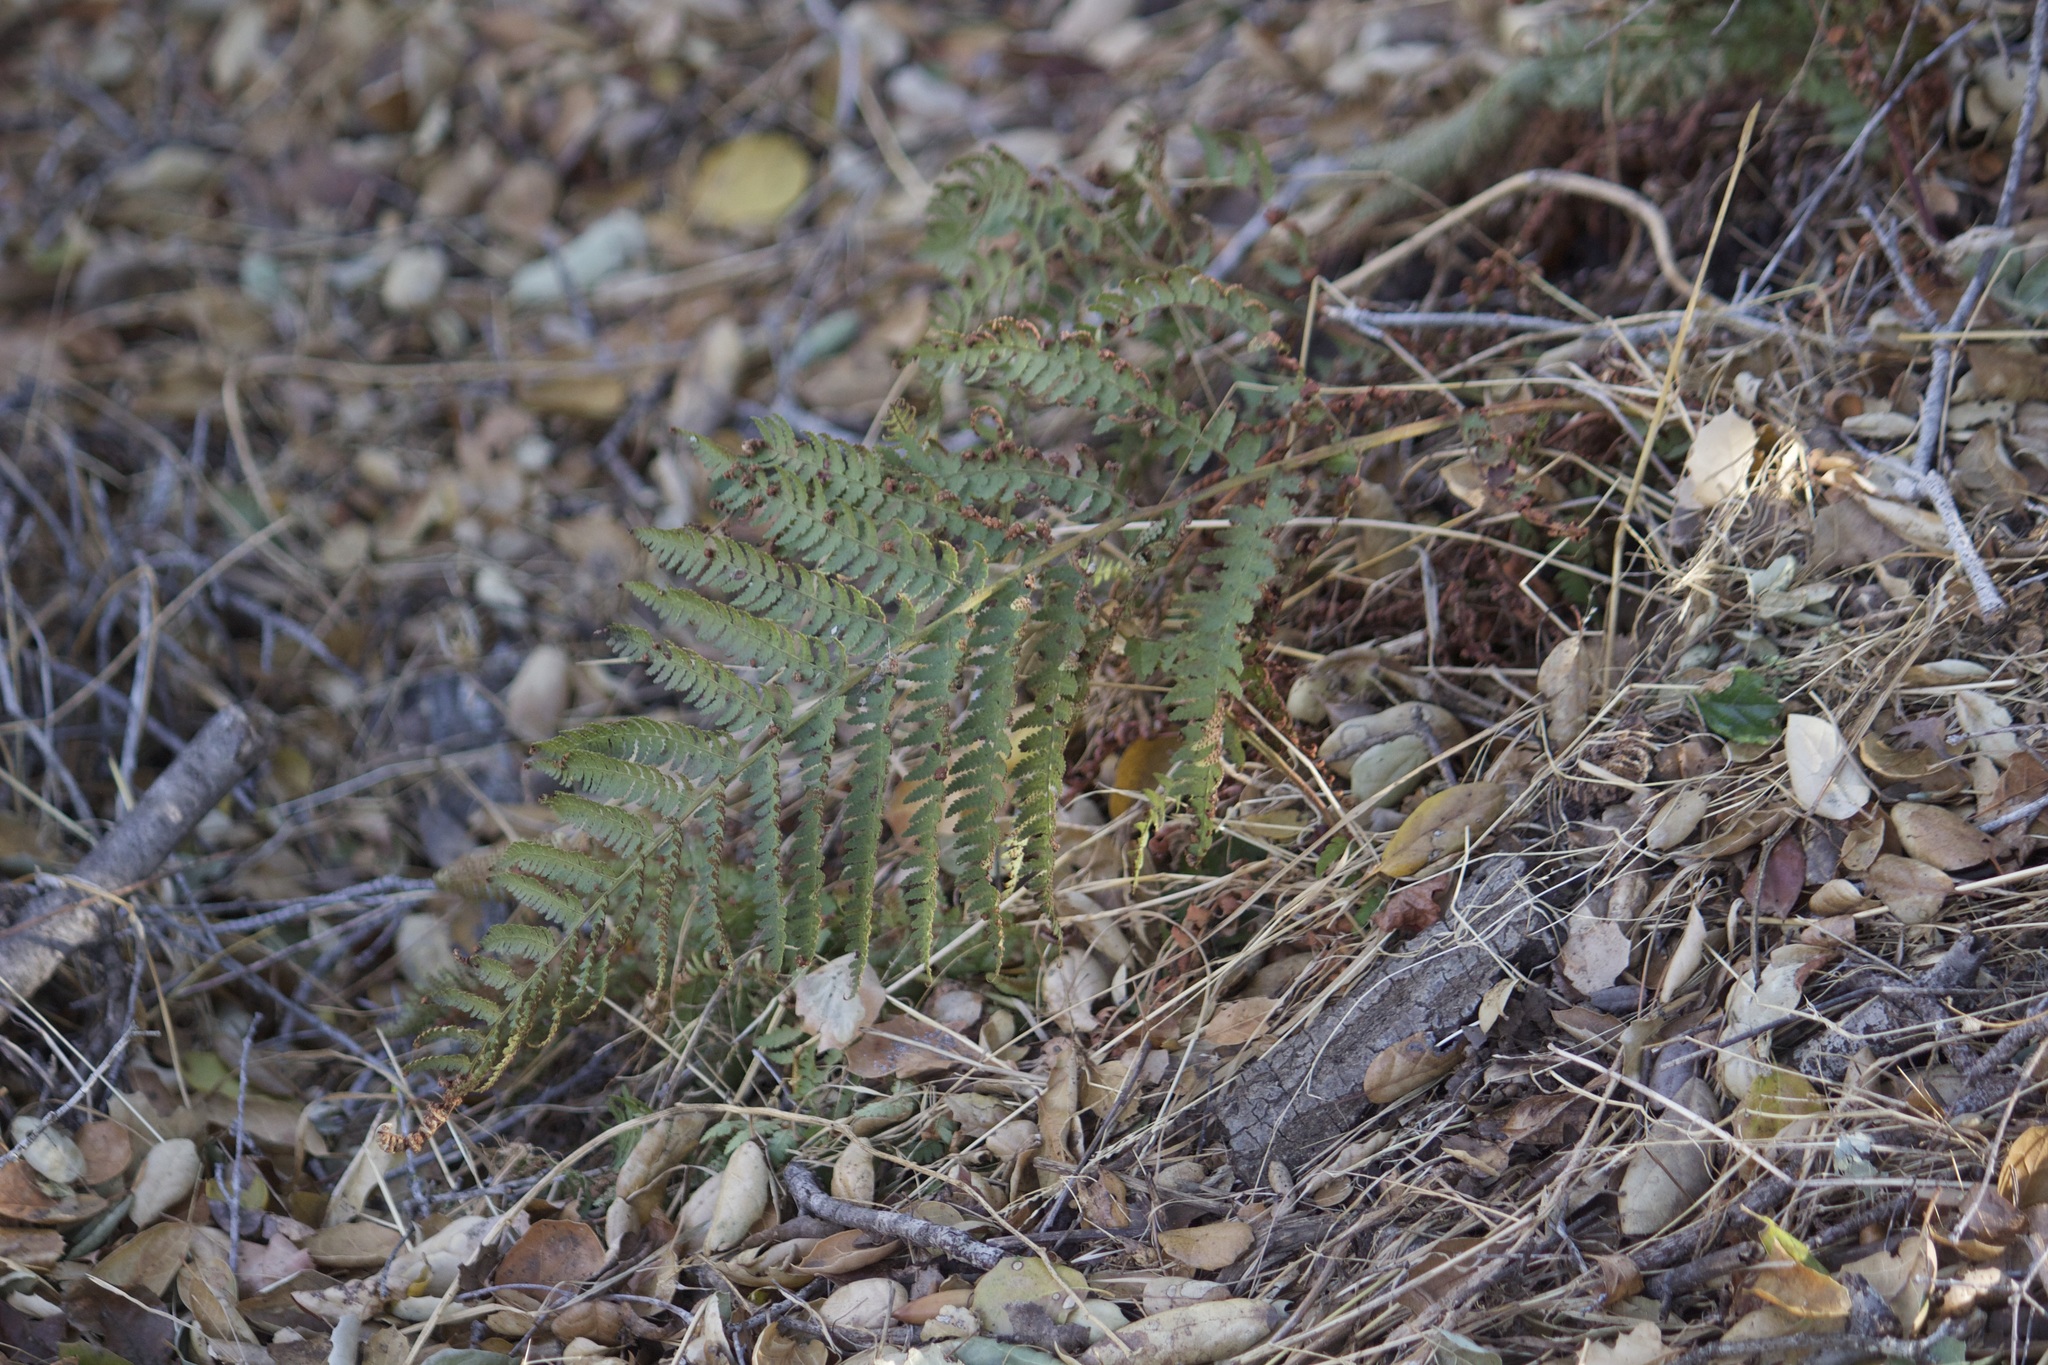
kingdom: Plantae
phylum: Tracheophyta
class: Polypodiopsida
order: Polypodiales
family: Dryopteridaceae
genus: Dryopteris
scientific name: Dryopteris arguta
